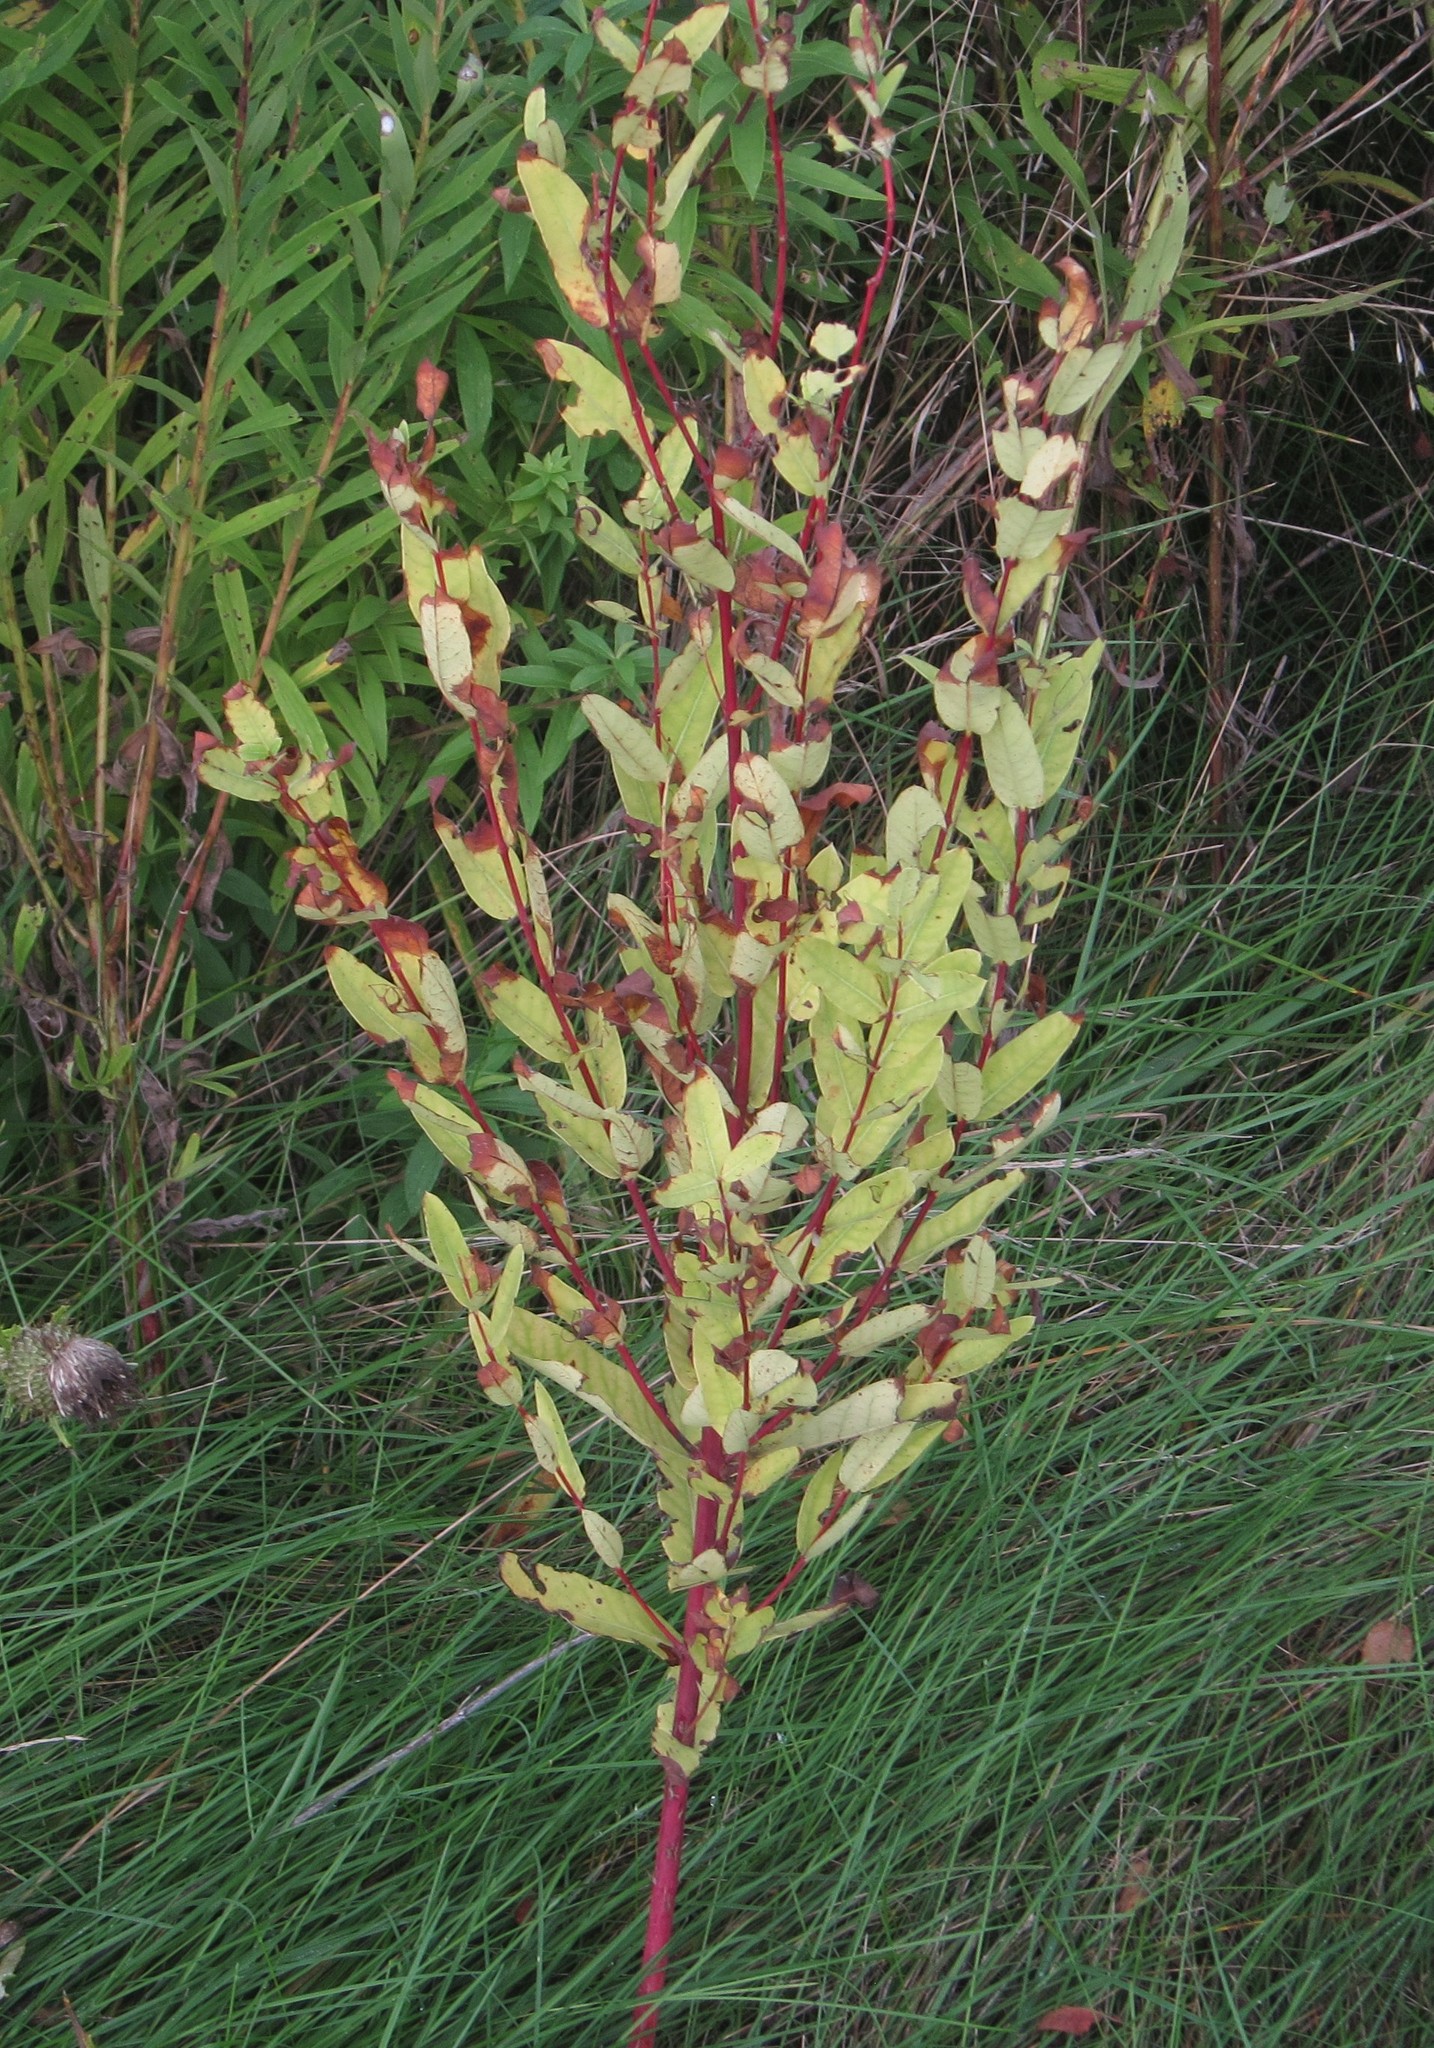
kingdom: Plantae
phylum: Tracheophyta
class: Magnoliopsida
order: Gentianales
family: Apocynaceae
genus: Apocynum
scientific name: Apocynum cannabinum
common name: Hemp dogbane
